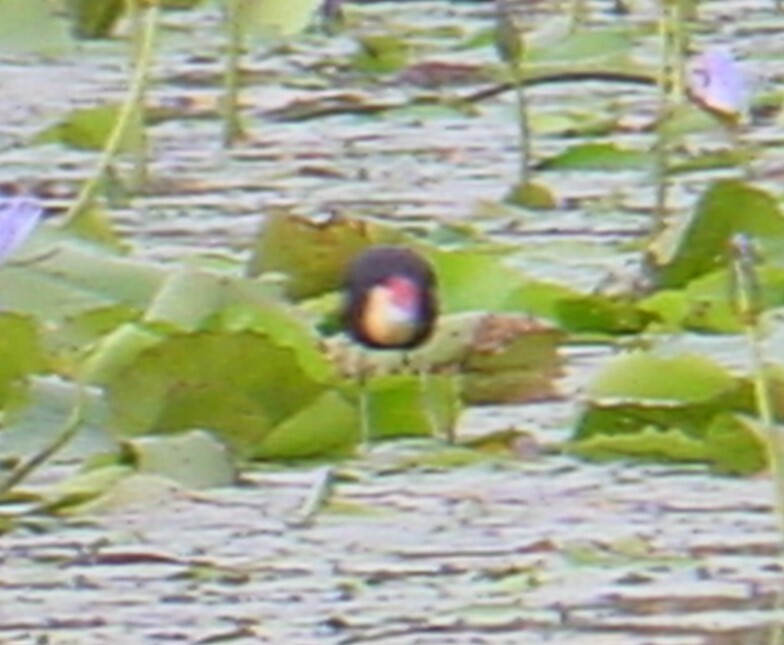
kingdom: Animalia
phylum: Chordata
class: Aves
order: Charadriiformes
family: Jacanidae
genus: Irediparra
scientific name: Irediparra gallinacea
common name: Comb-crested jacana
